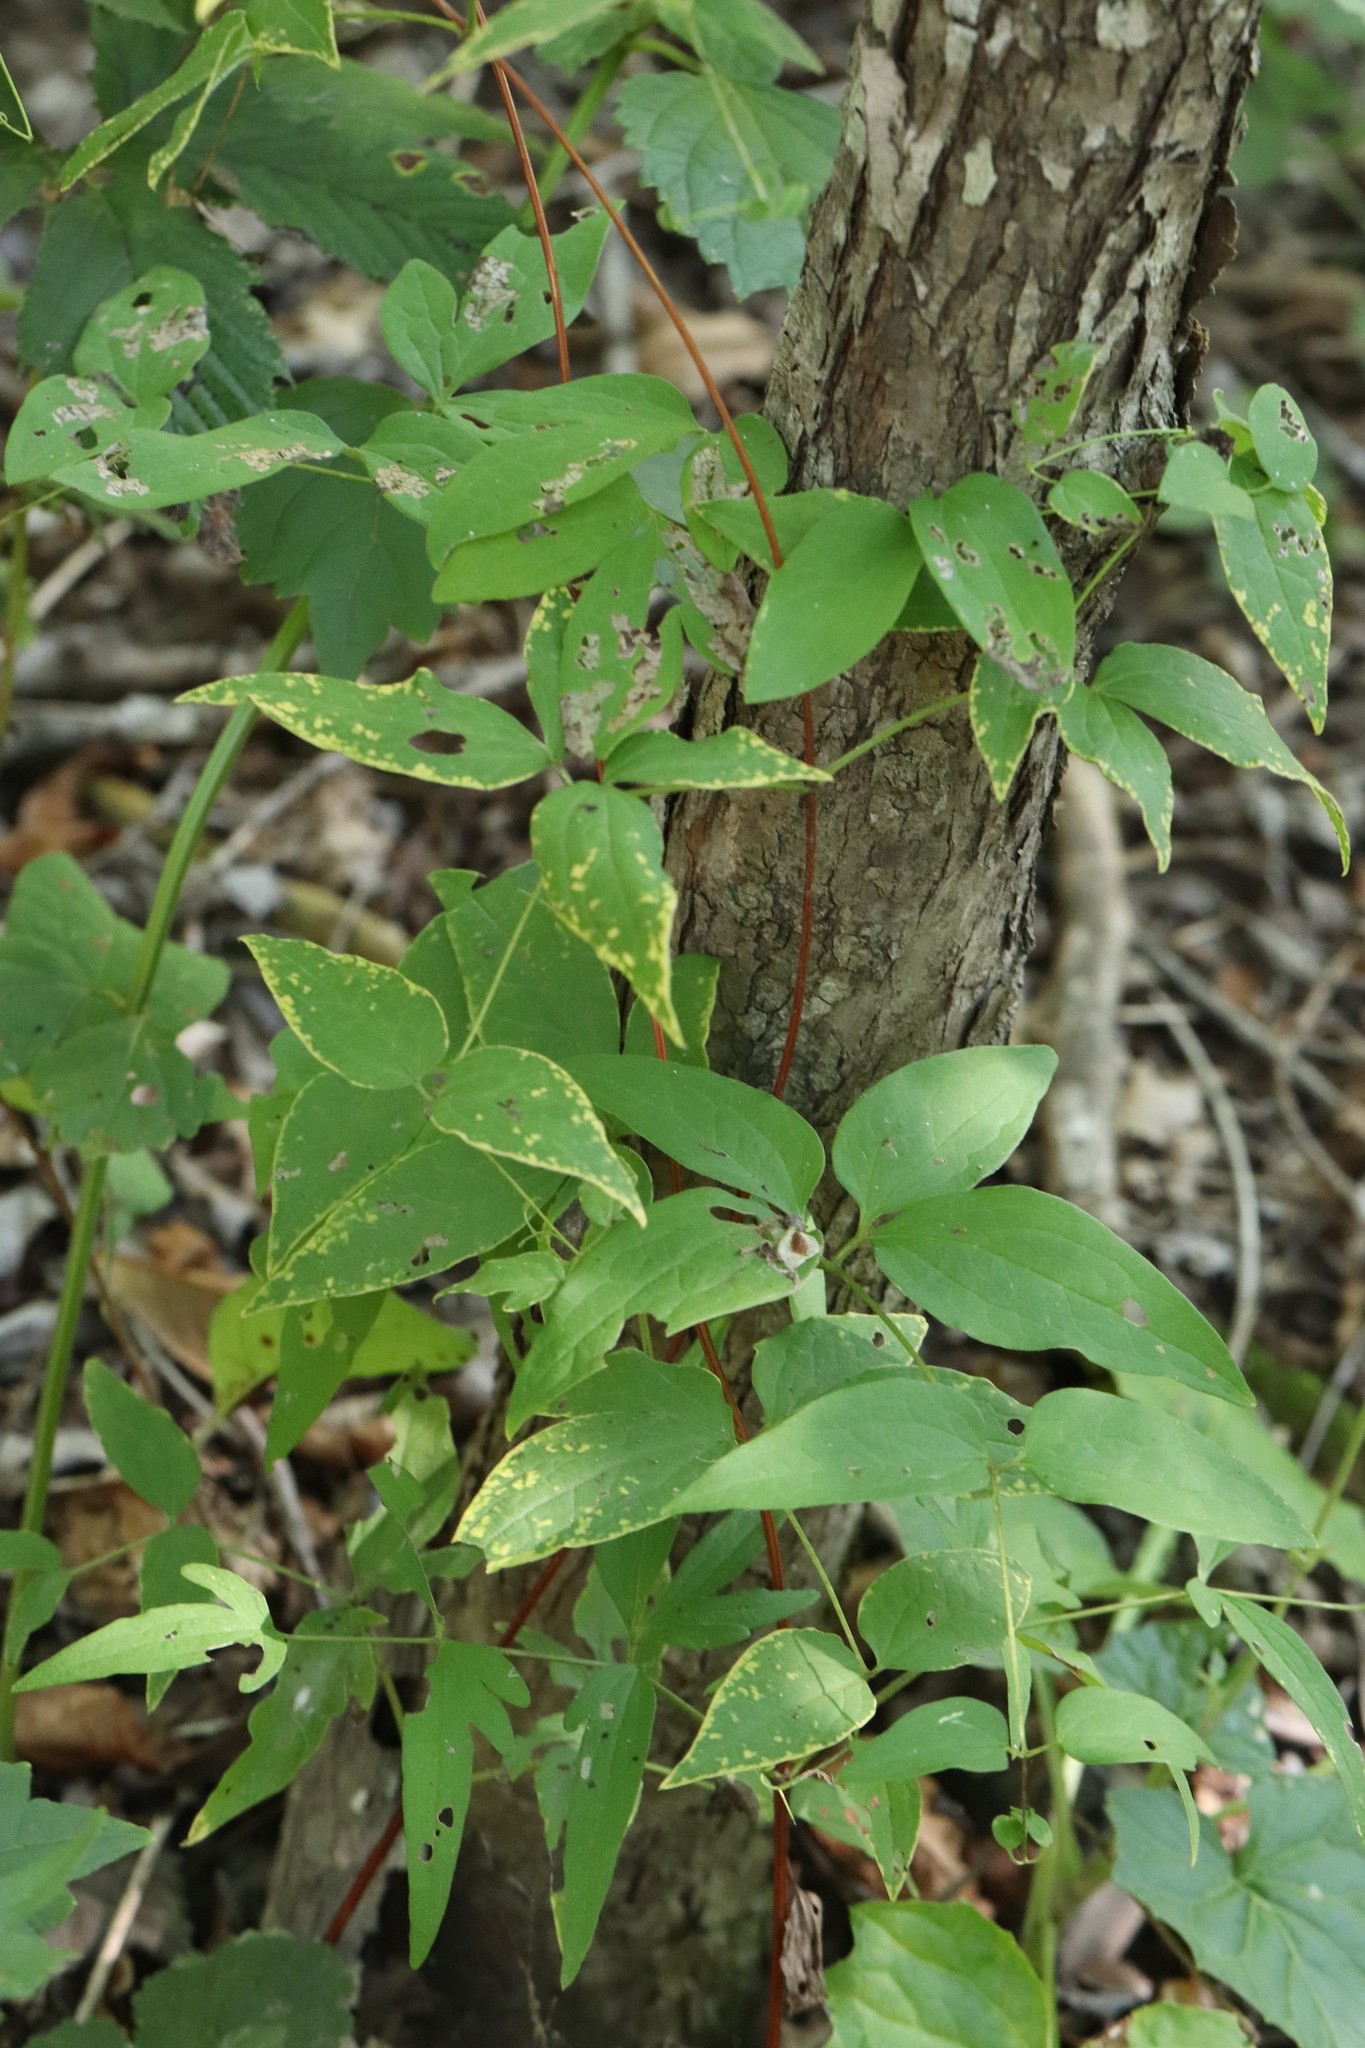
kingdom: Plantae
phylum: Tracheophyta
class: Magnoliopsida
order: Ranunculales
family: Ranunculaceae
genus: Clematis
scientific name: Clematis fusca
